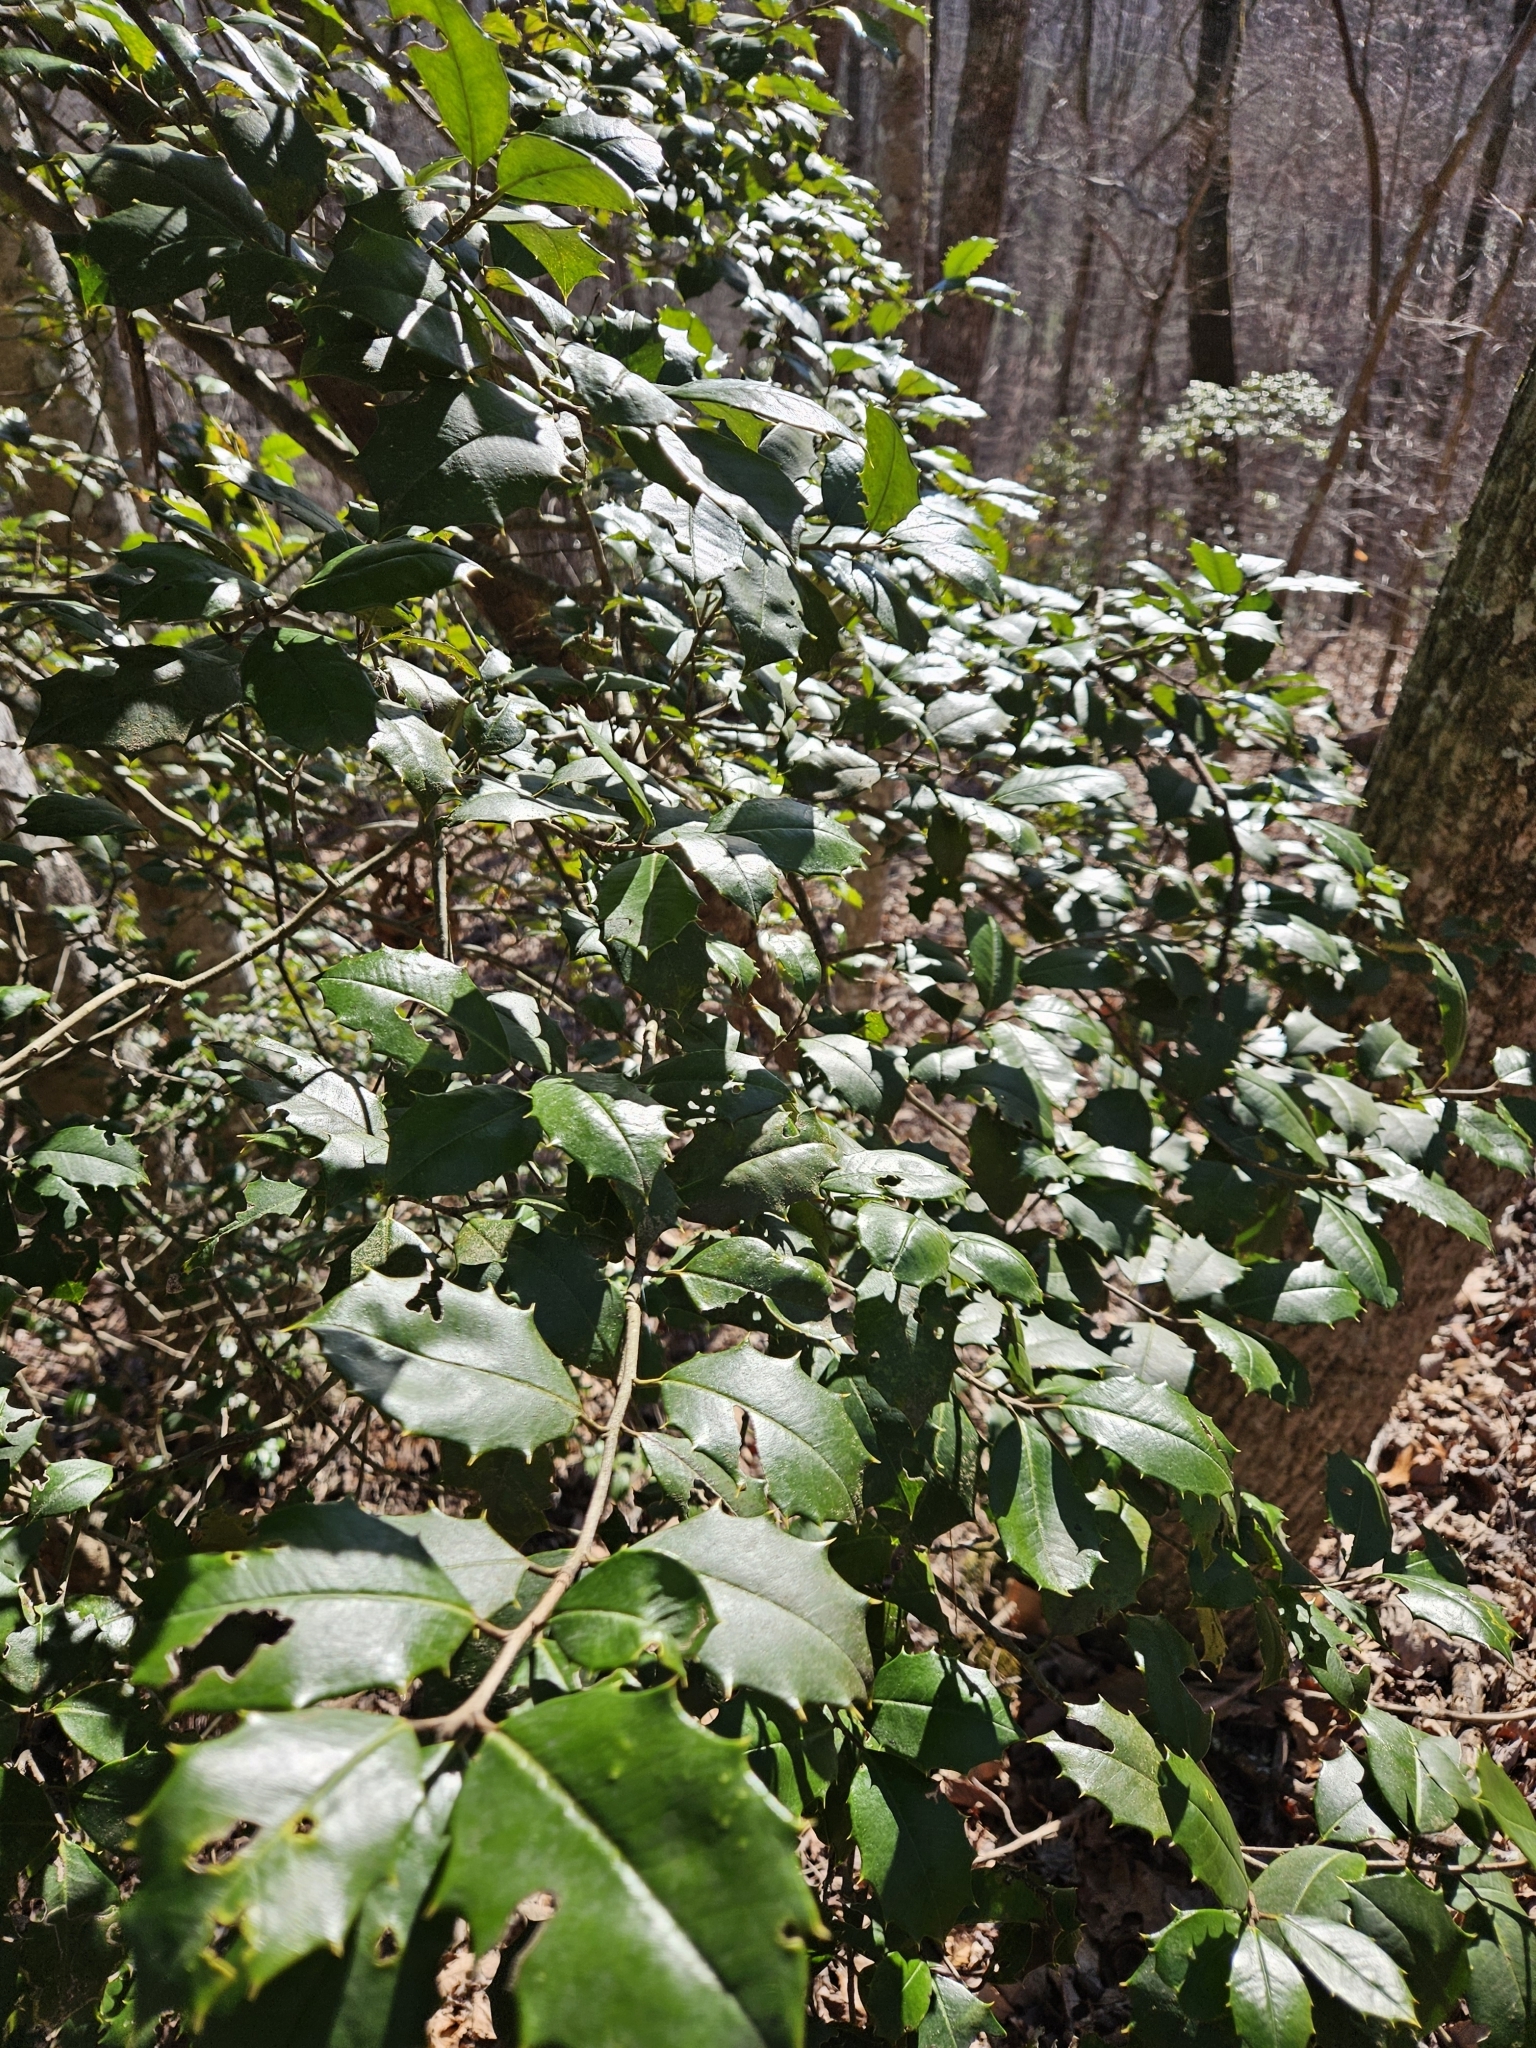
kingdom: Plantae
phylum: Tracheophyta
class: Magnoliopsida
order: Aquifoliales
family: Aquifoliaceae
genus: Ilex
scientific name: Ilex opaca
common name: American holly
